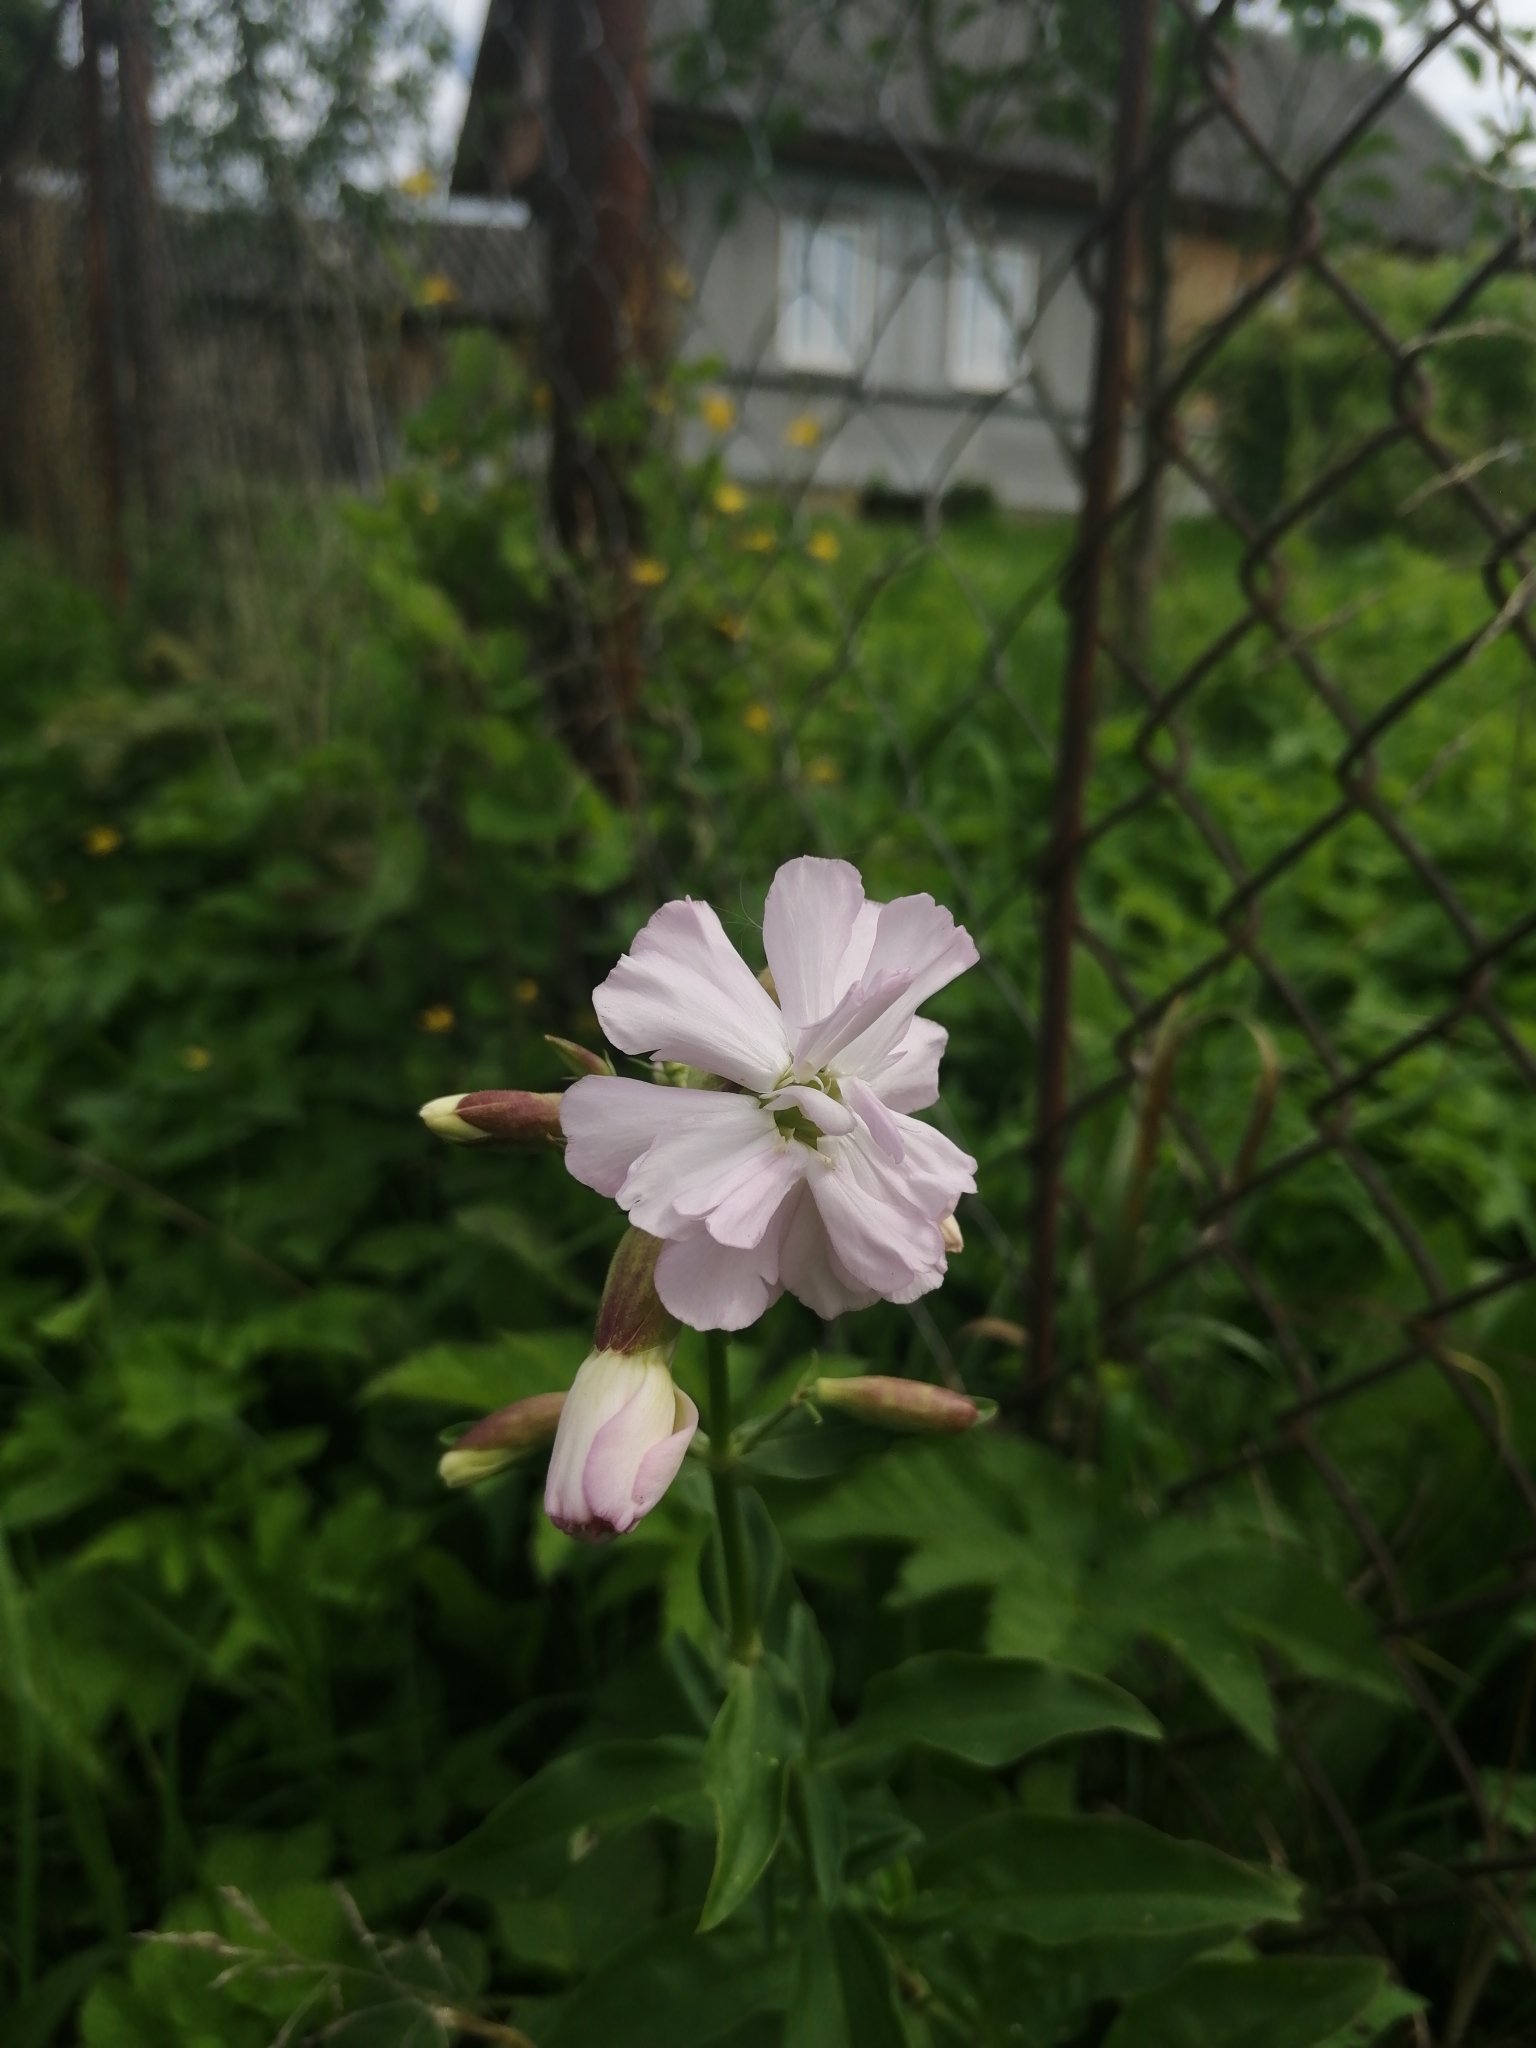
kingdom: Plantae
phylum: Tracheophyta
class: Magnoliopsida
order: Caryophyllales
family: Caryophyllaceae
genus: Saponaria
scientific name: Saponaria officinalis
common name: Soapwort
